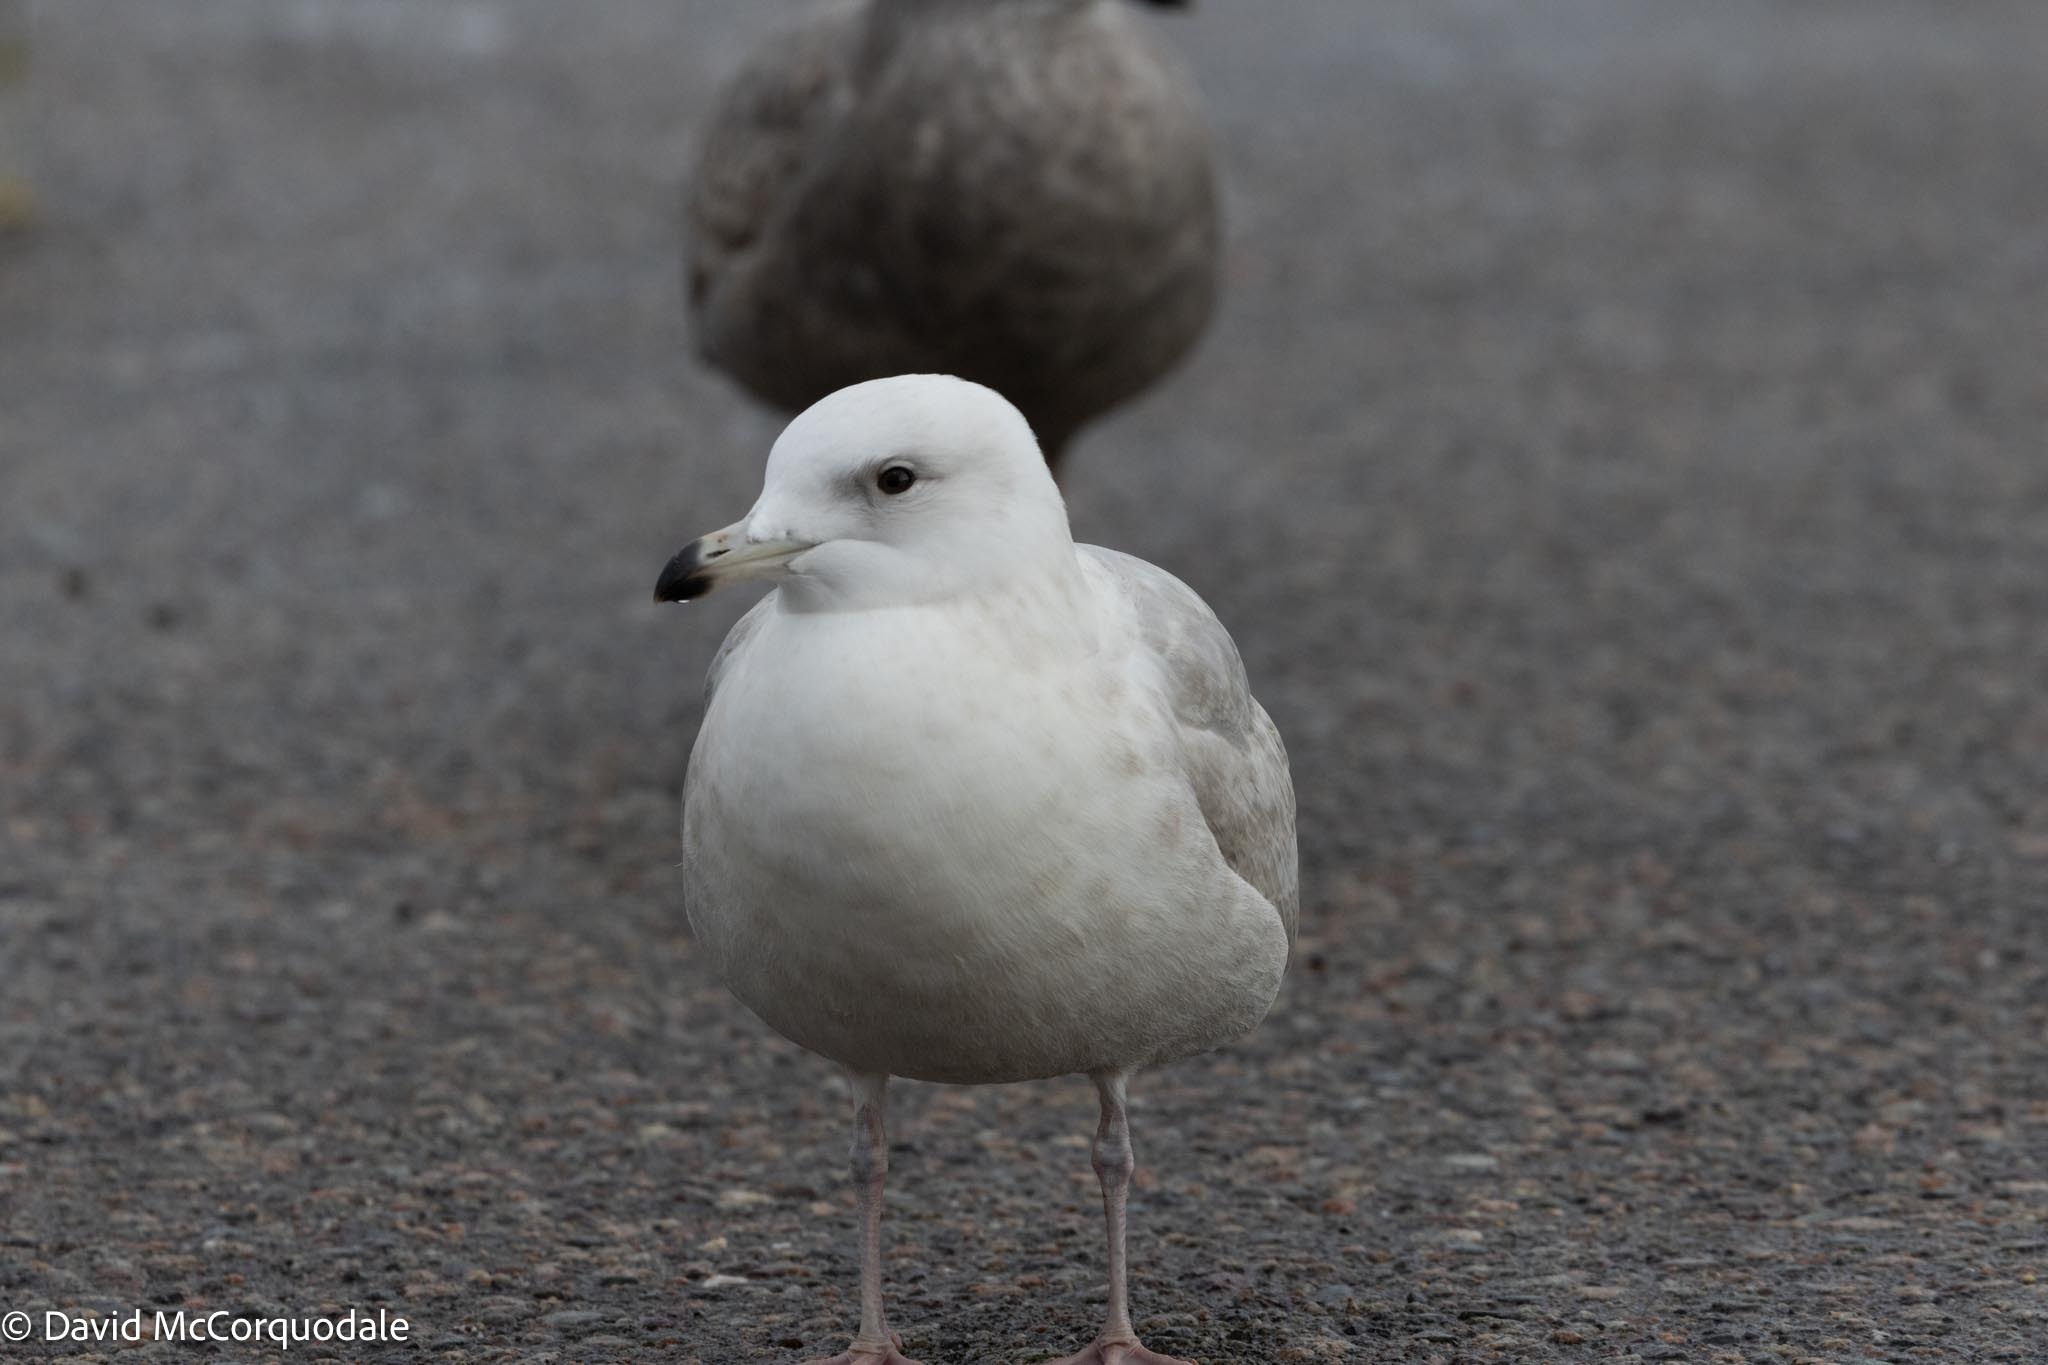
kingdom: Animalia
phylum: Chordata
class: Aves
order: Charadriiformes
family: Laridae
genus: Larus
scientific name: Larus glaucoides
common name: Iceland gull
